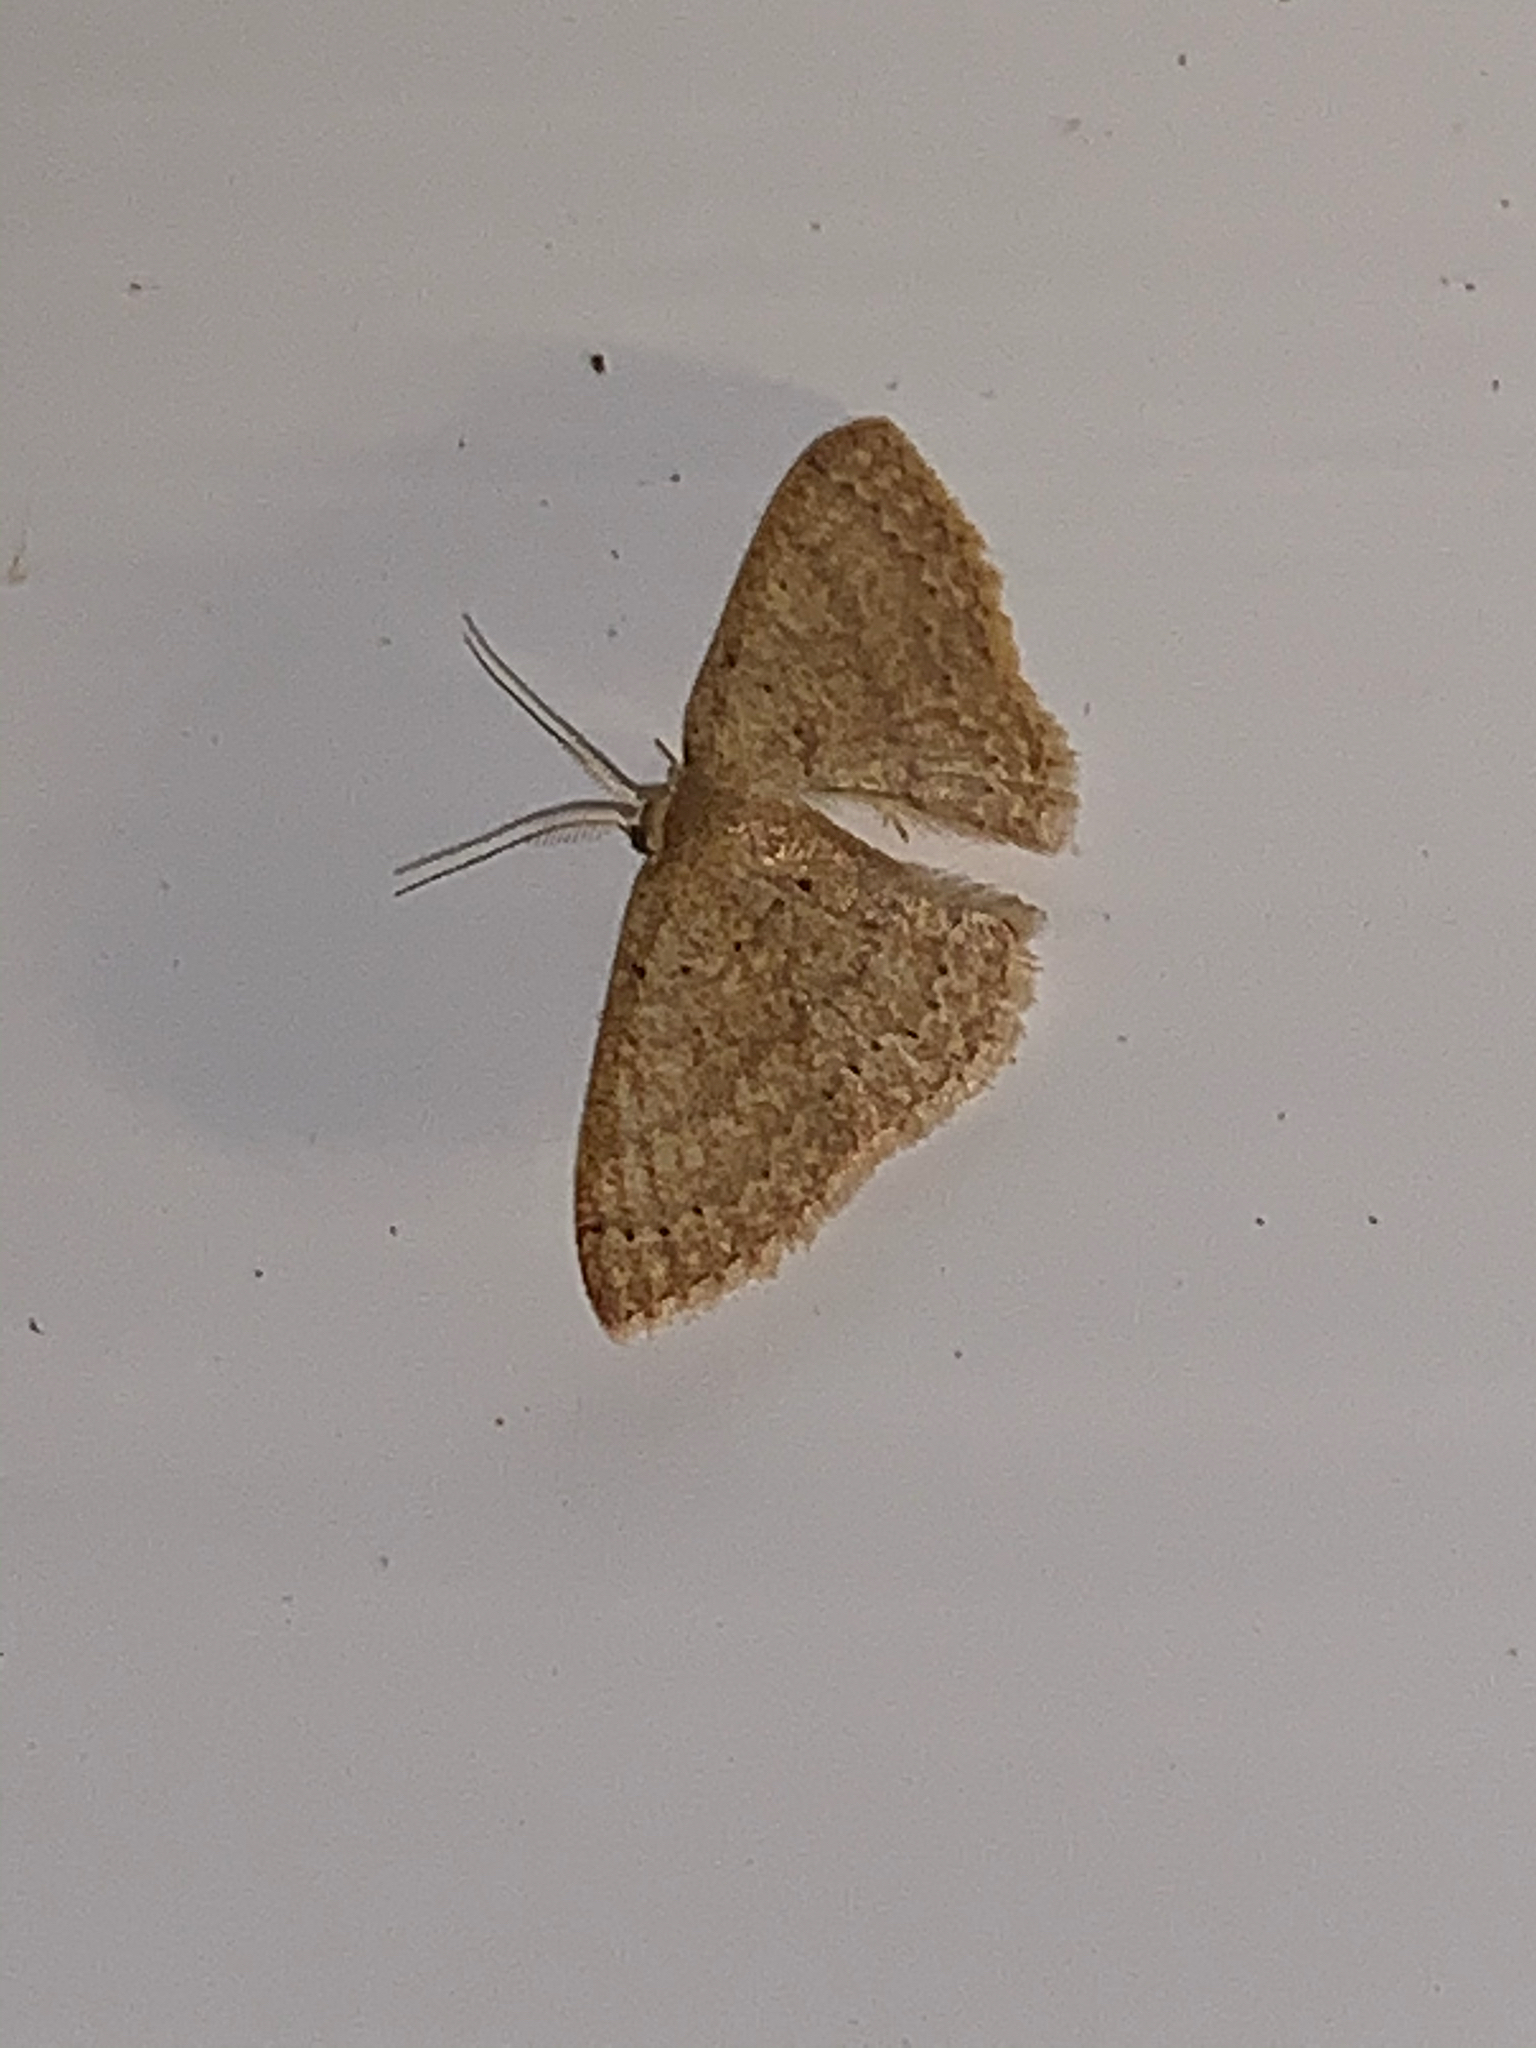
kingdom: Animalia
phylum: Arthropoda
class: Insecta
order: Lepidoptera
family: Geometridae
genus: Pleuroprucha
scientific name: Pleuroprucha insulsaria
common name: Common tan wave
